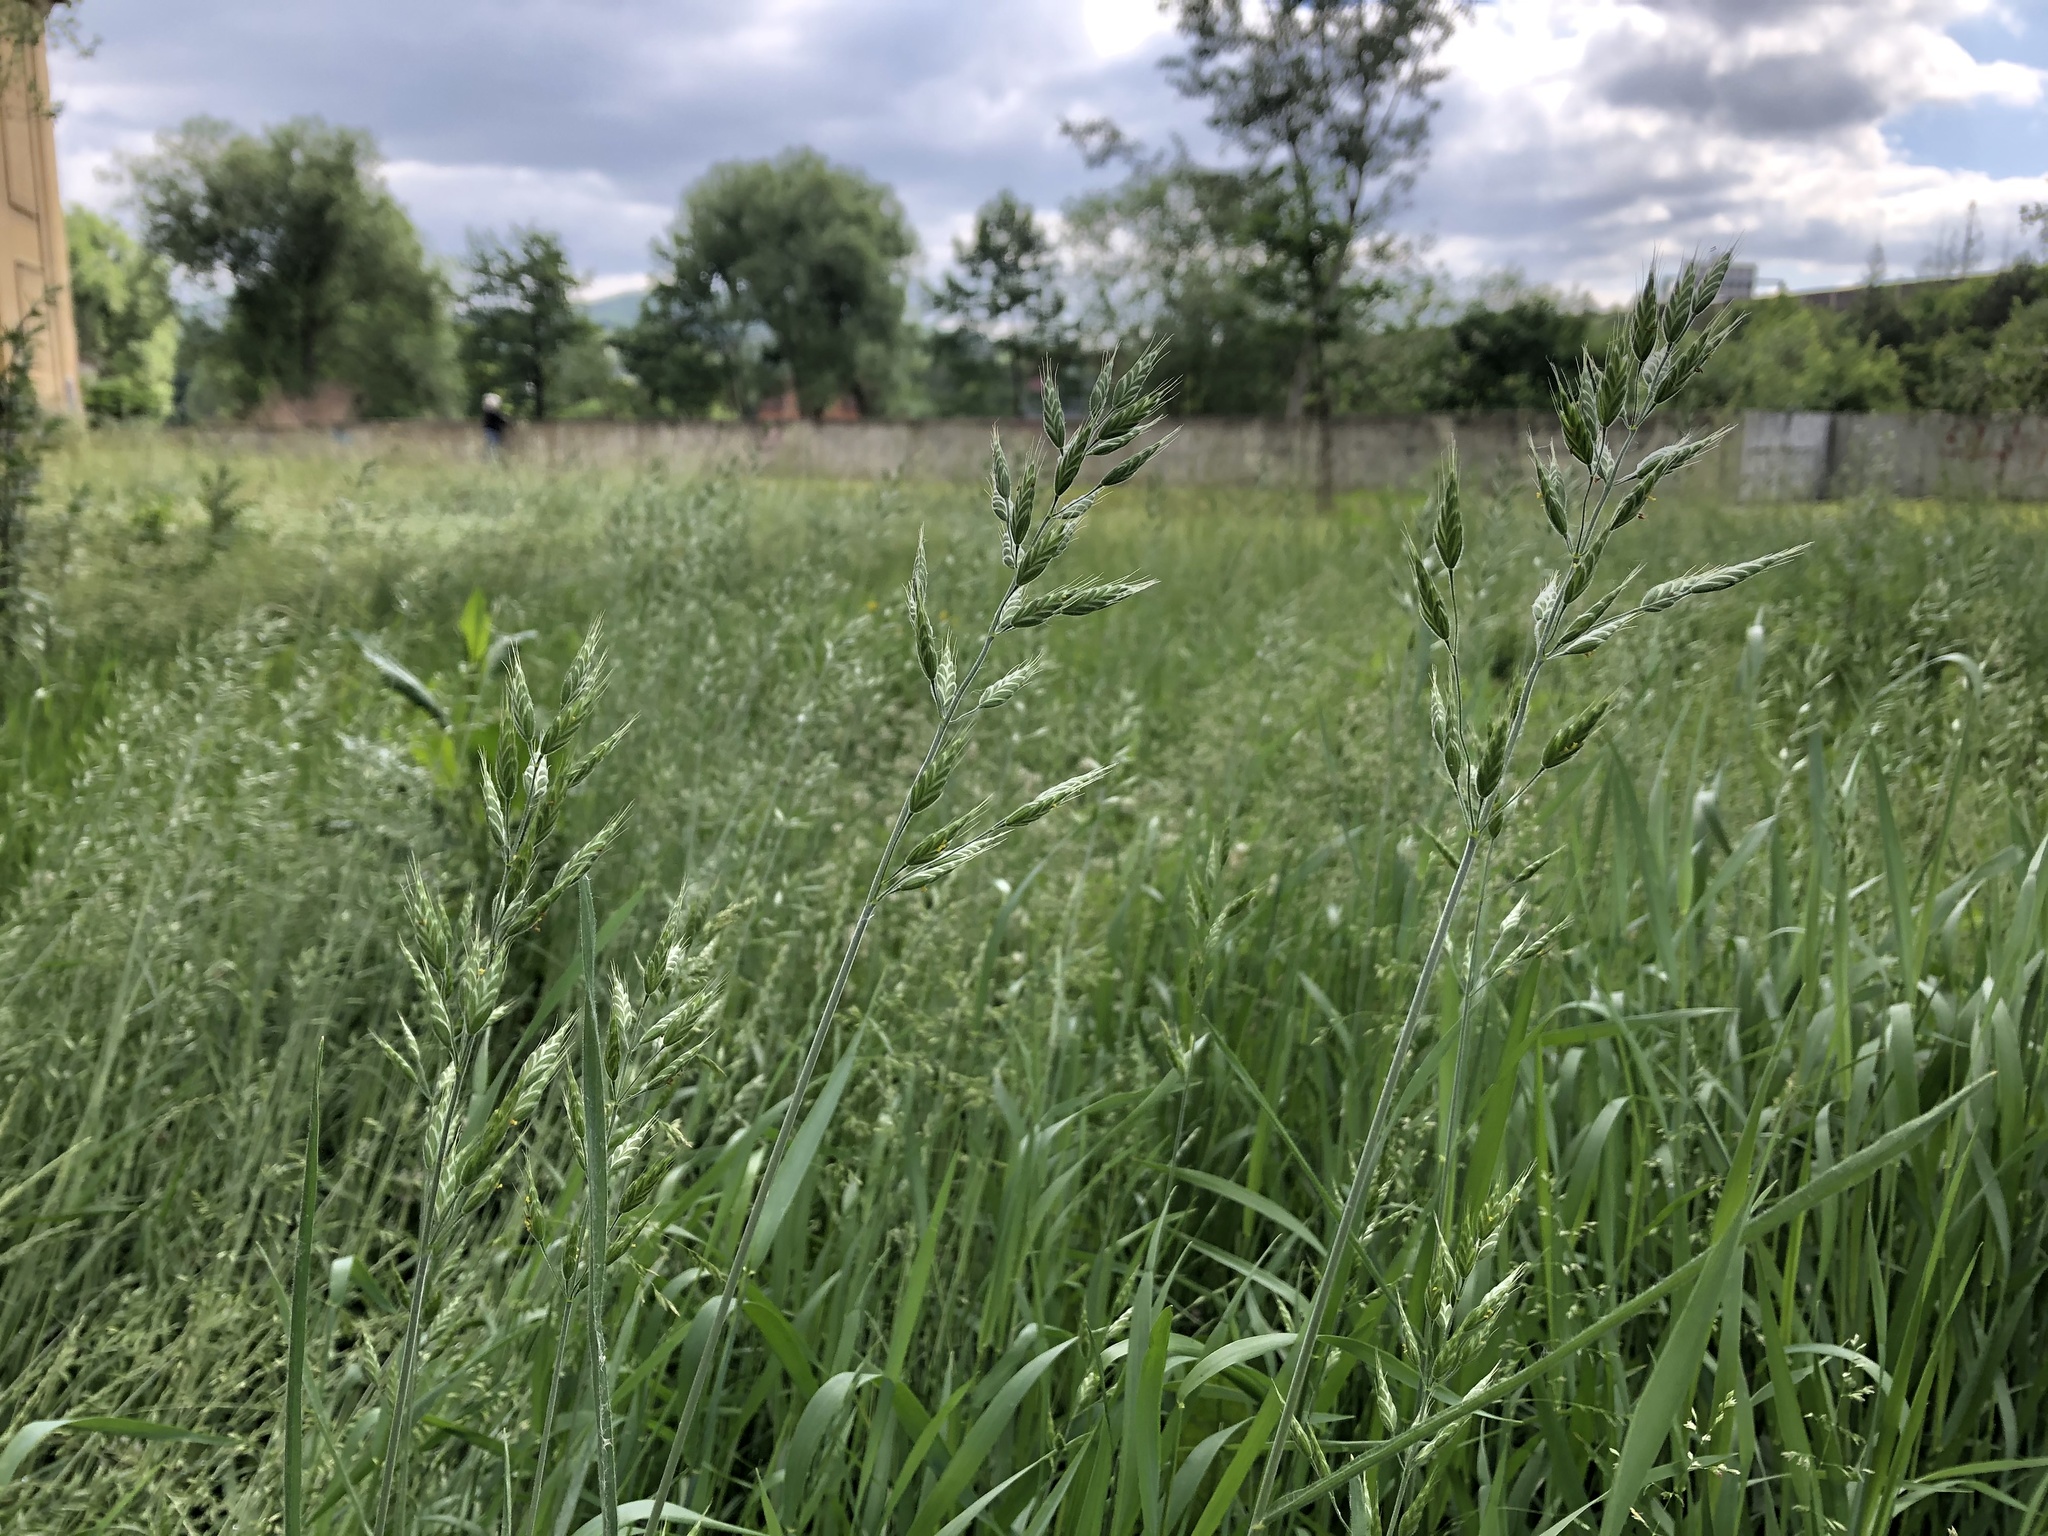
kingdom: Plantae
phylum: Tracheophyta
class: Liliopsida
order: Poales
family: Poaceae
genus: Bromus
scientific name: Bromus hordeaceus
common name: Soft brome
